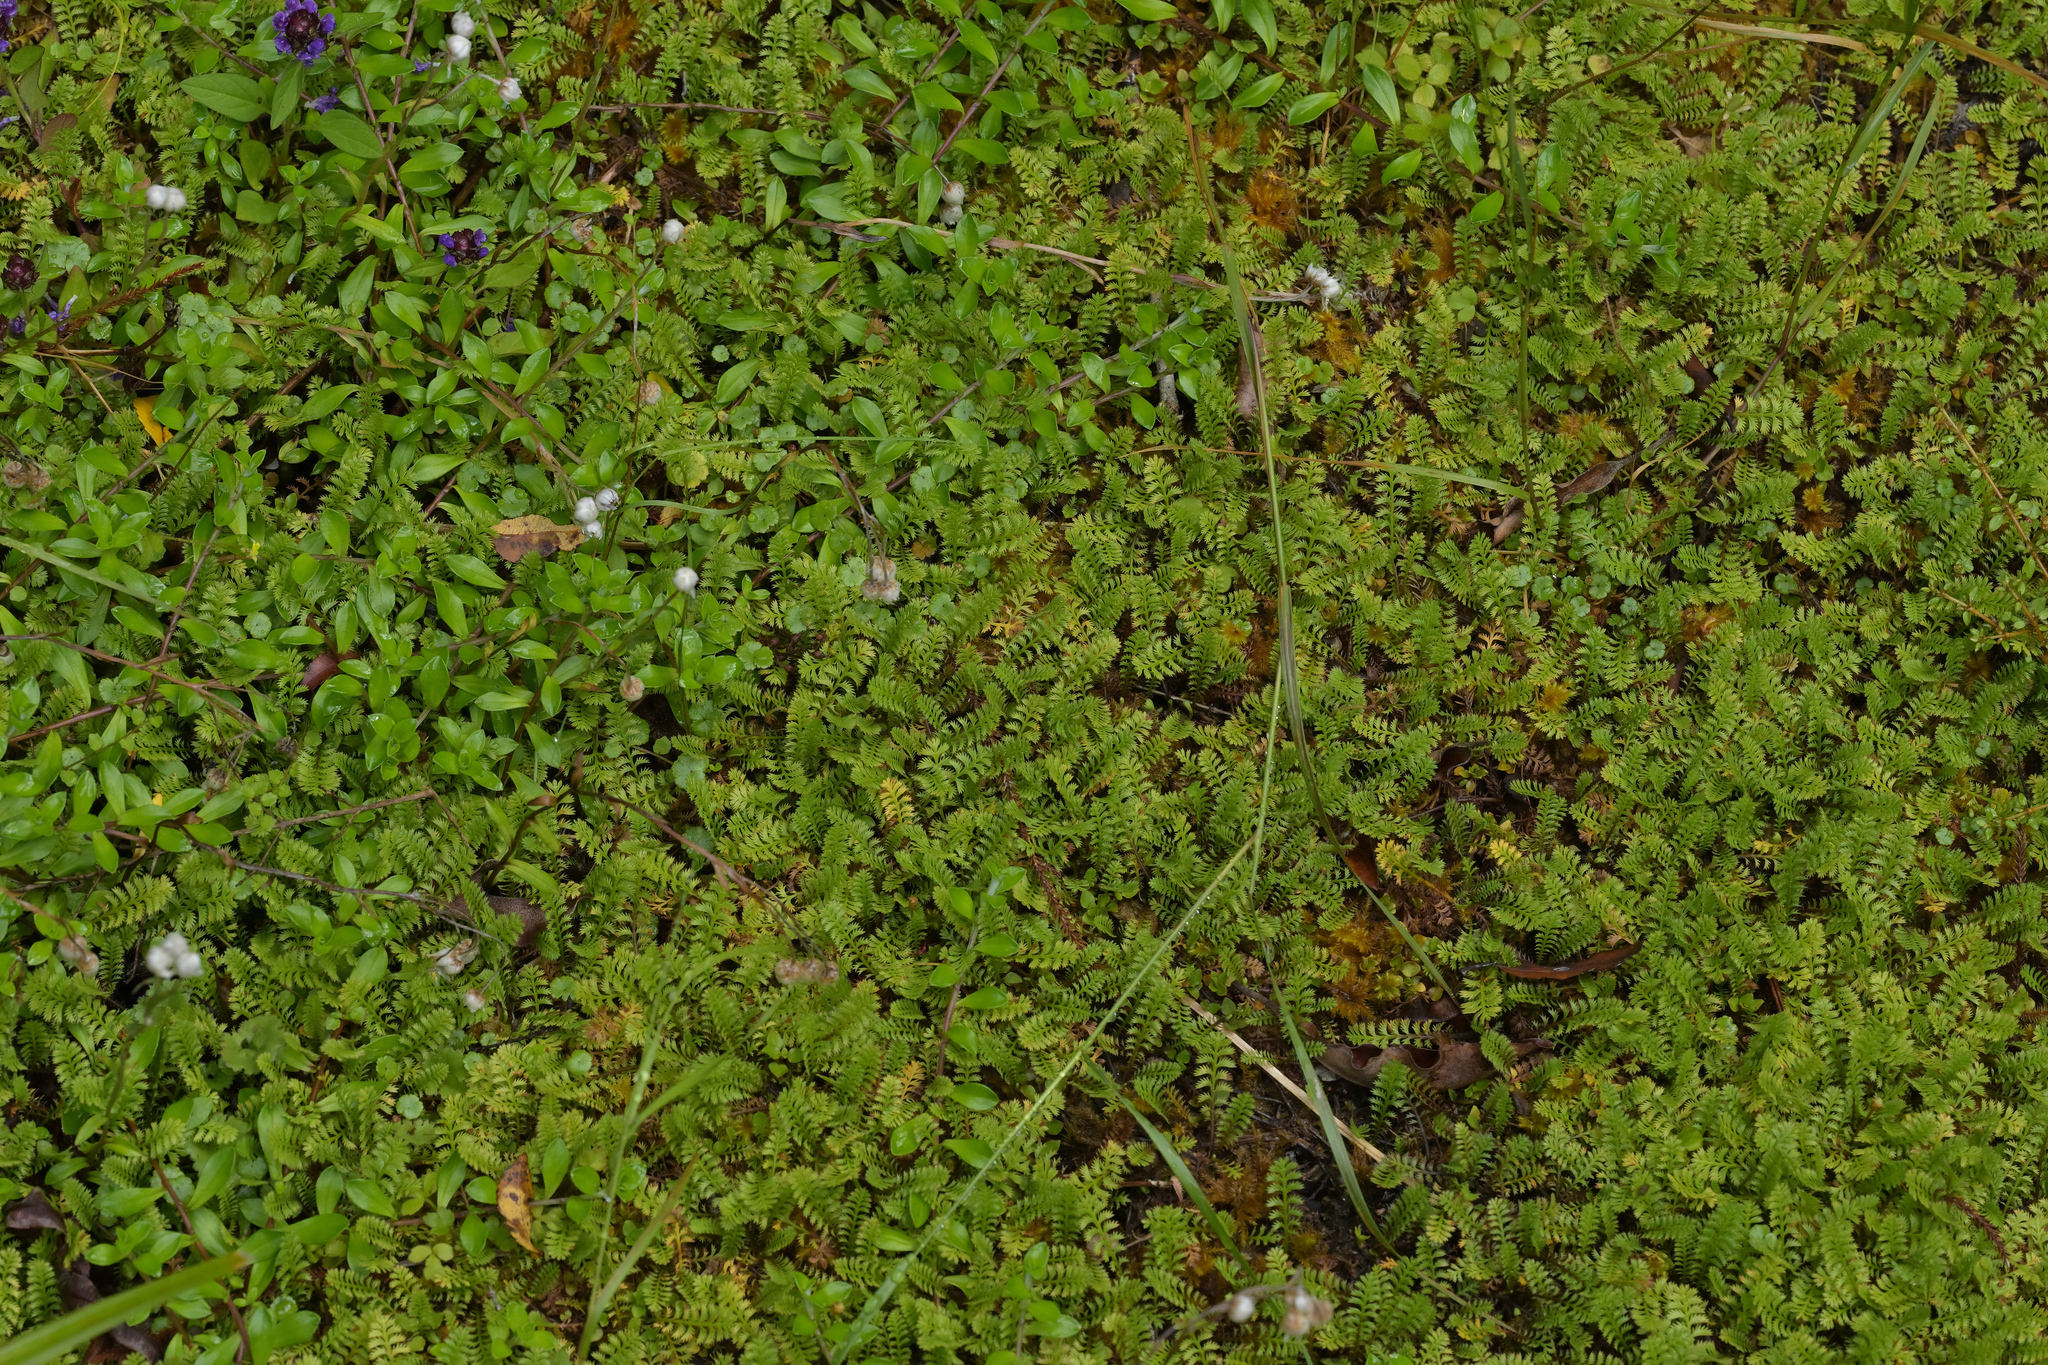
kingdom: Plantae
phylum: Tracheophyta
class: Magnoliopsida
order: Asterales
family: Asteraceae
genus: Leptinella
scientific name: Leptinella squalida
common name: New zealand brass-buttons
